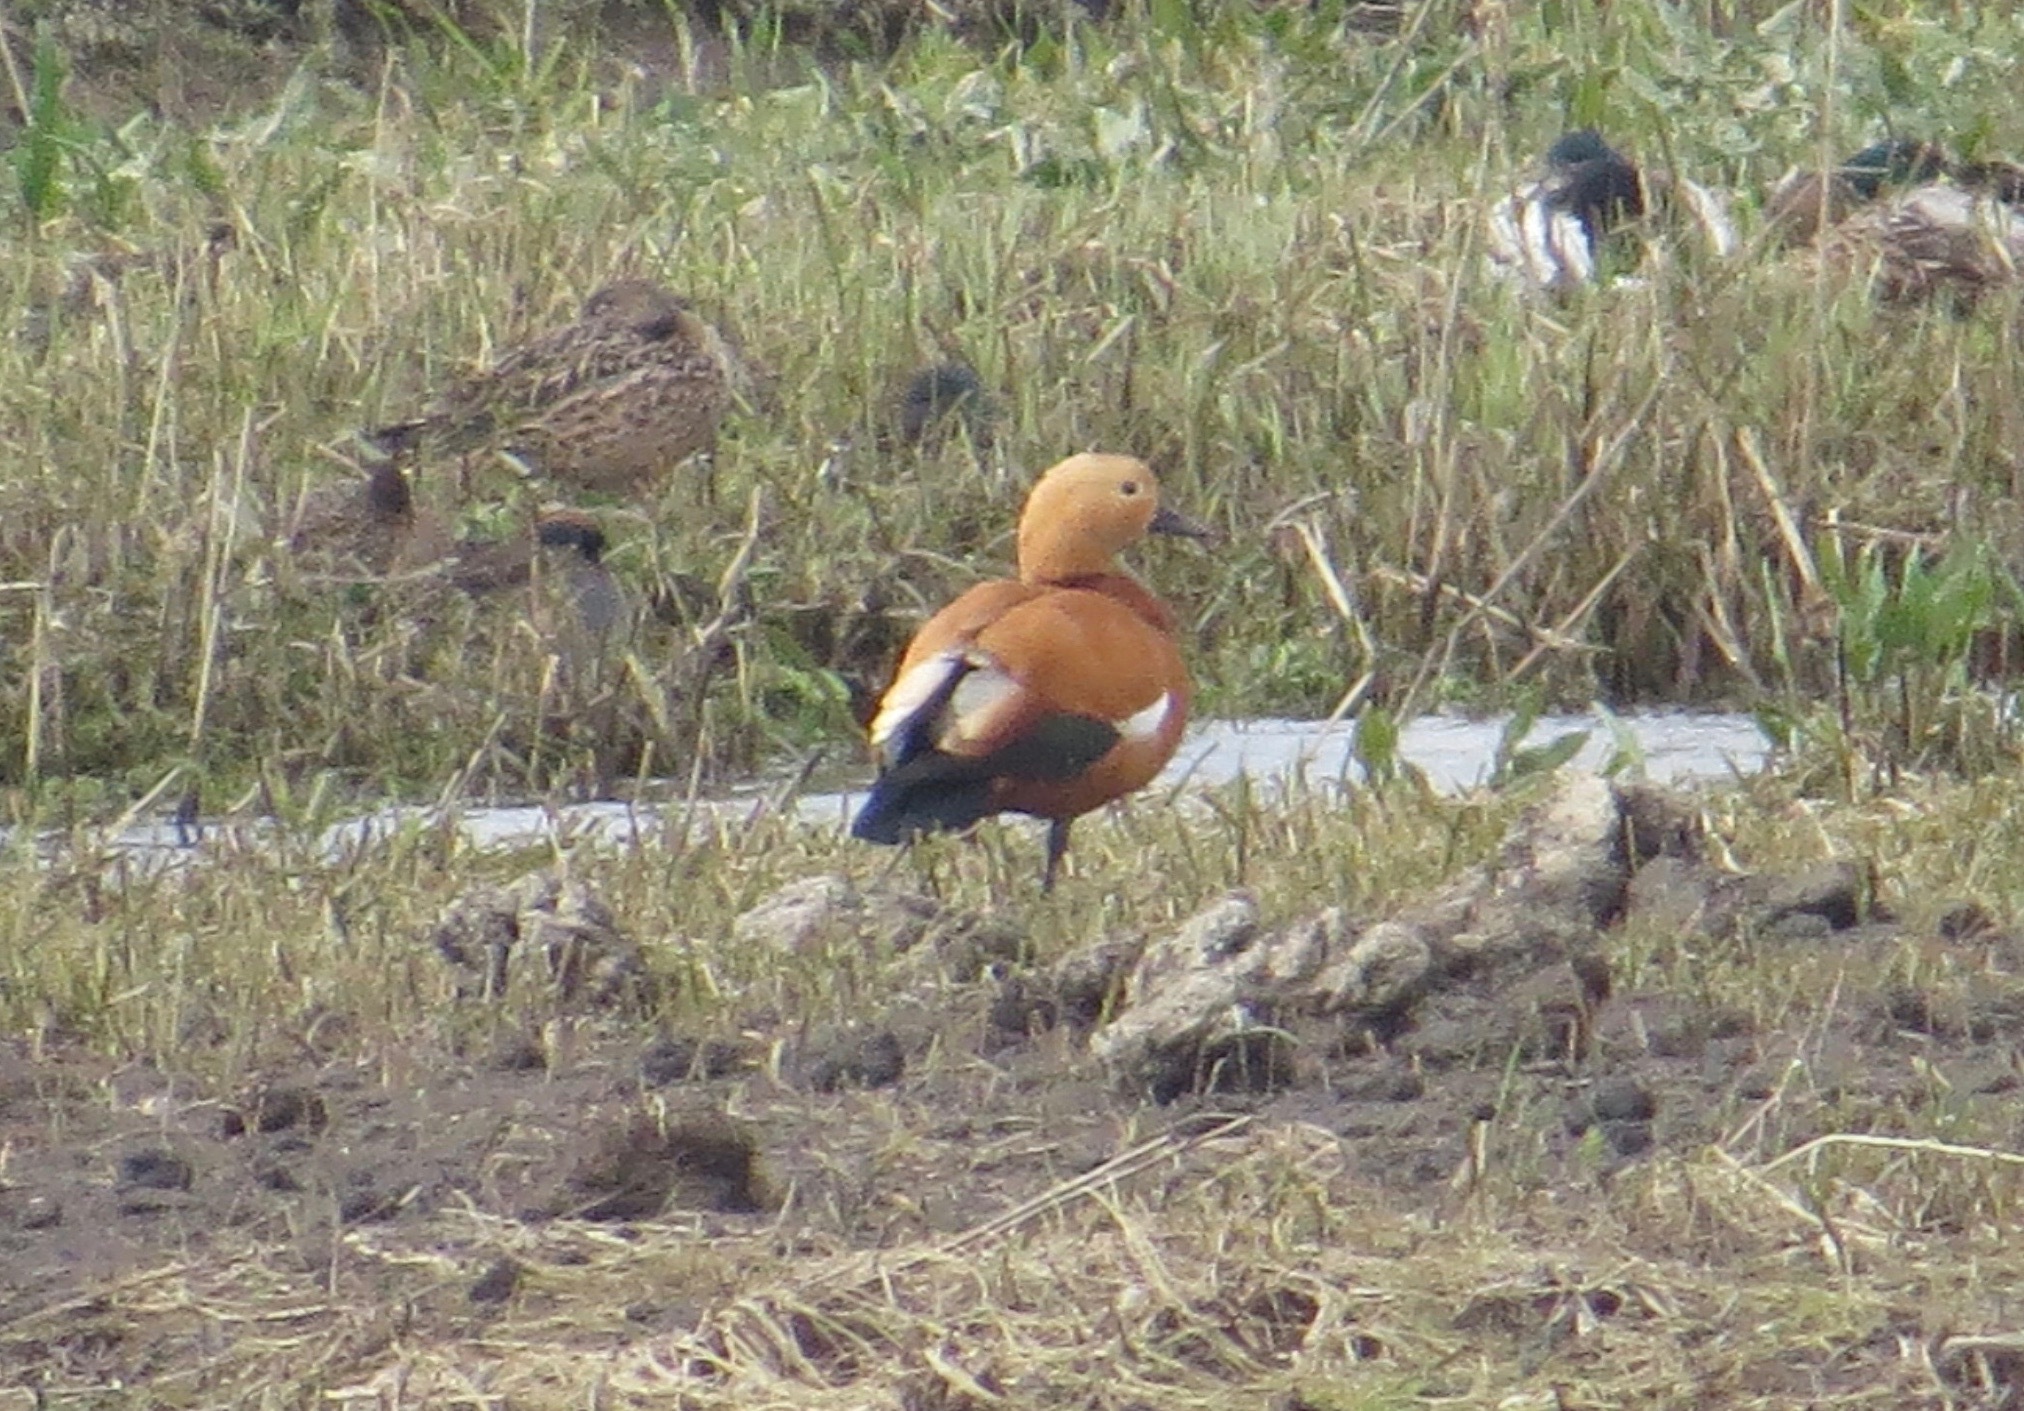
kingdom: Animalia
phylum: Chordata
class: Aves
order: Anseriformes
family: Anatidae
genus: Tadorna
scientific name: Tadorna ferruginea
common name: Ruddy shelduck
